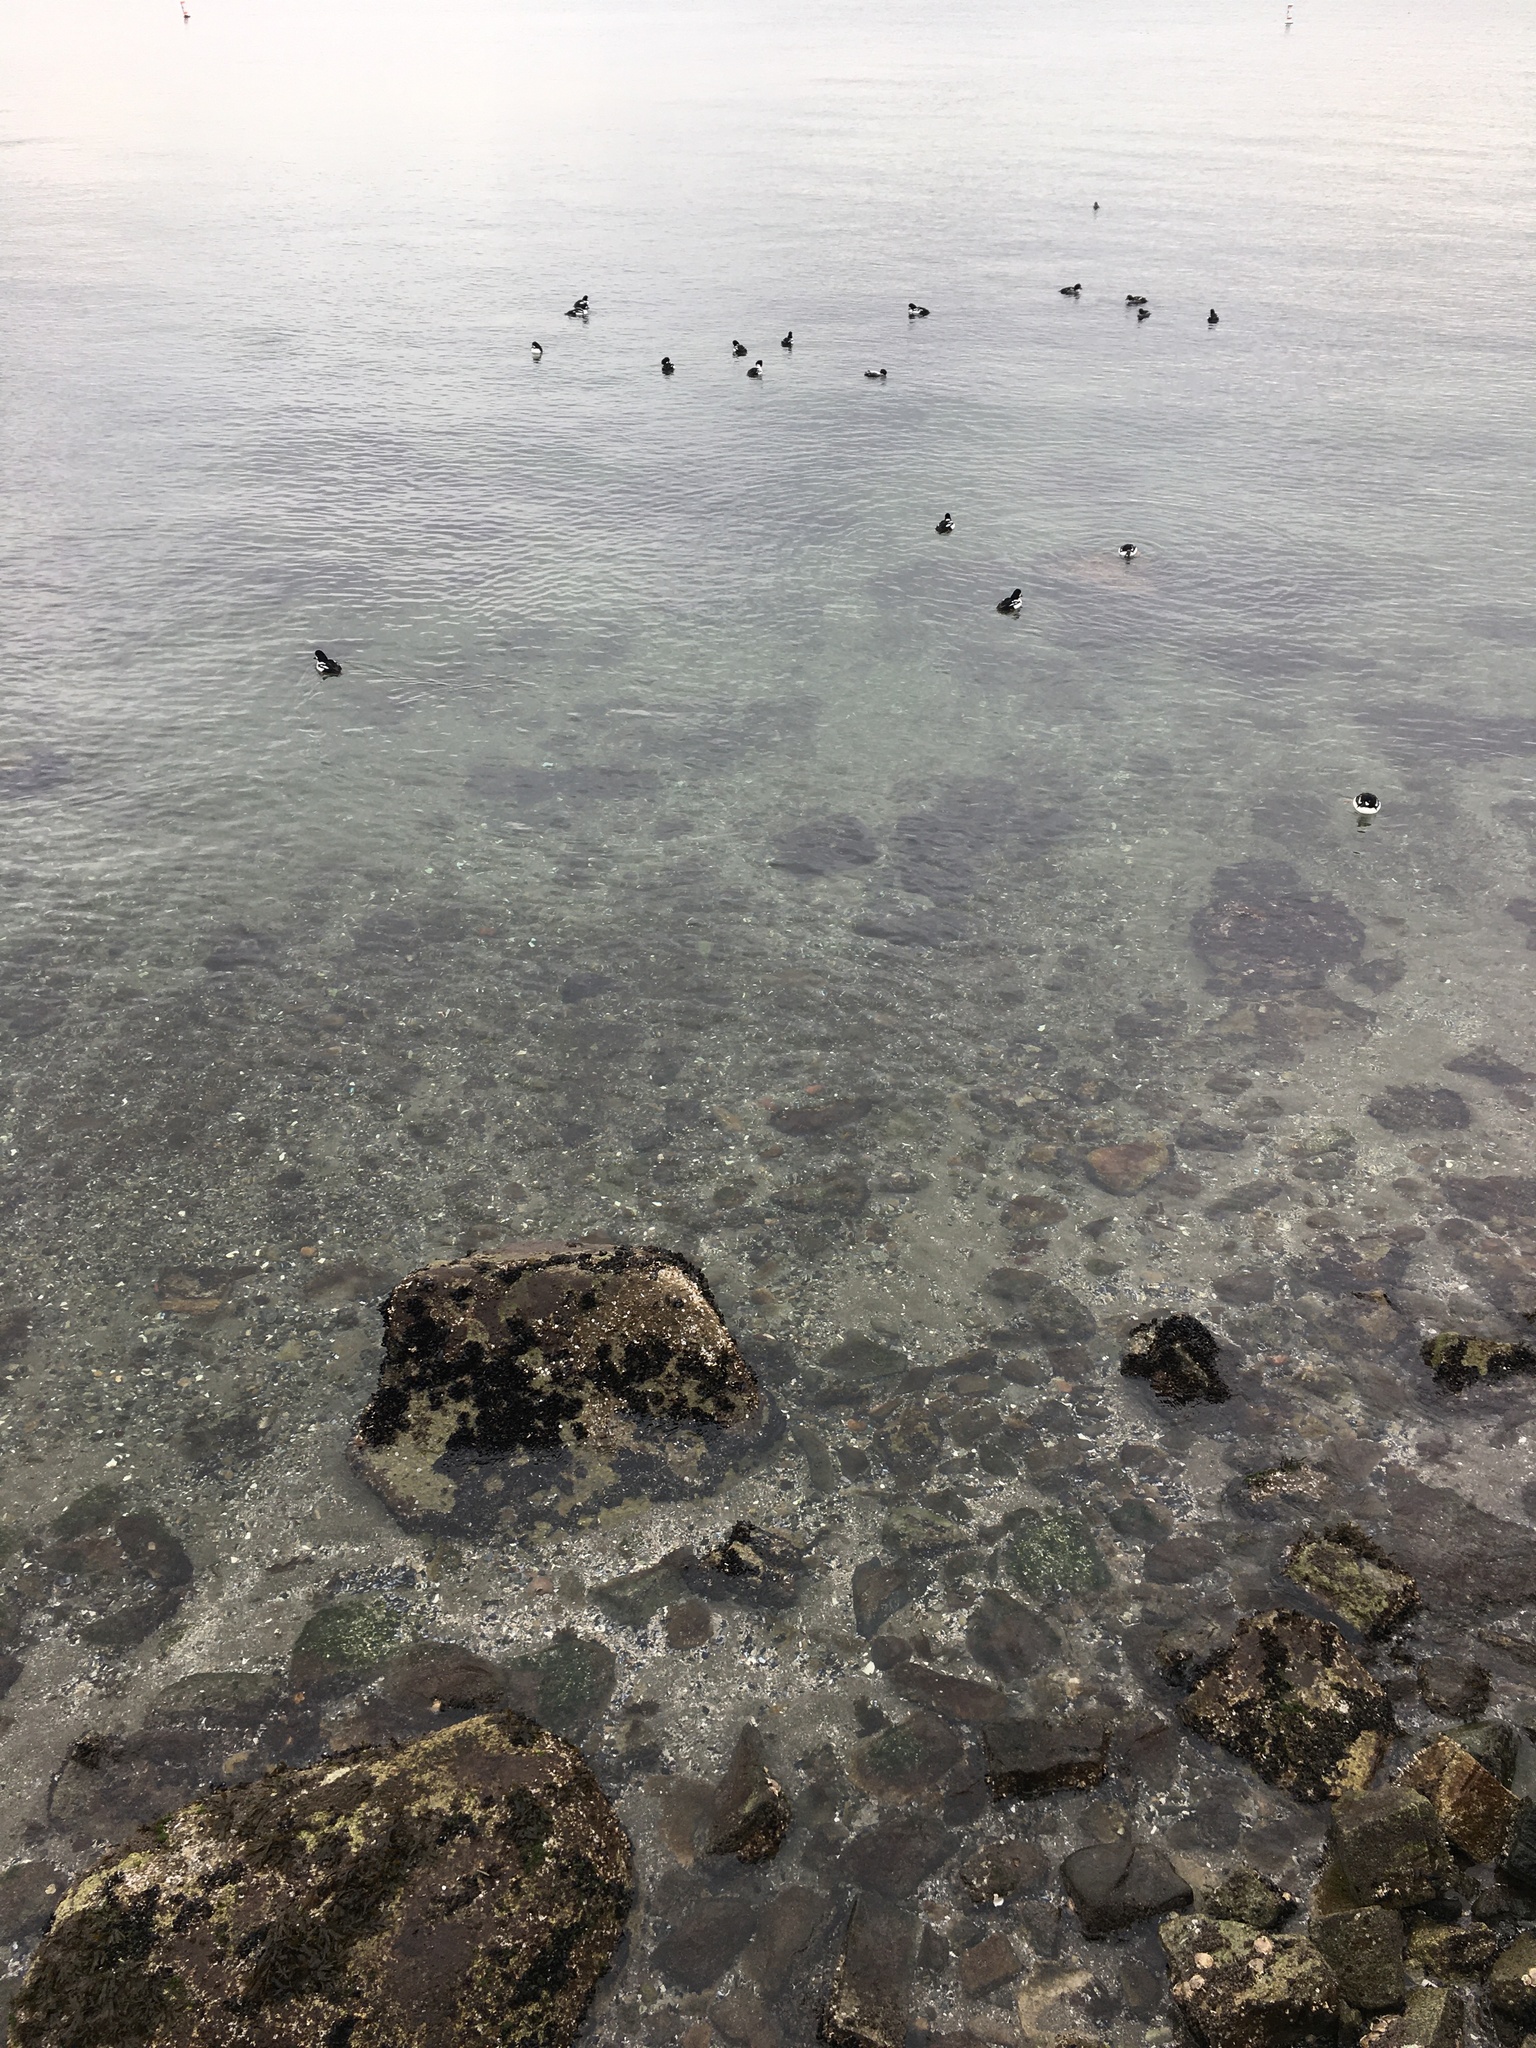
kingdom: Animalia
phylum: Chordata
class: Aves
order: Anseriformes
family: Anatidae
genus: Bucephala
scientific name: Bucephala islandica
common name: Barrow's goldeneye
